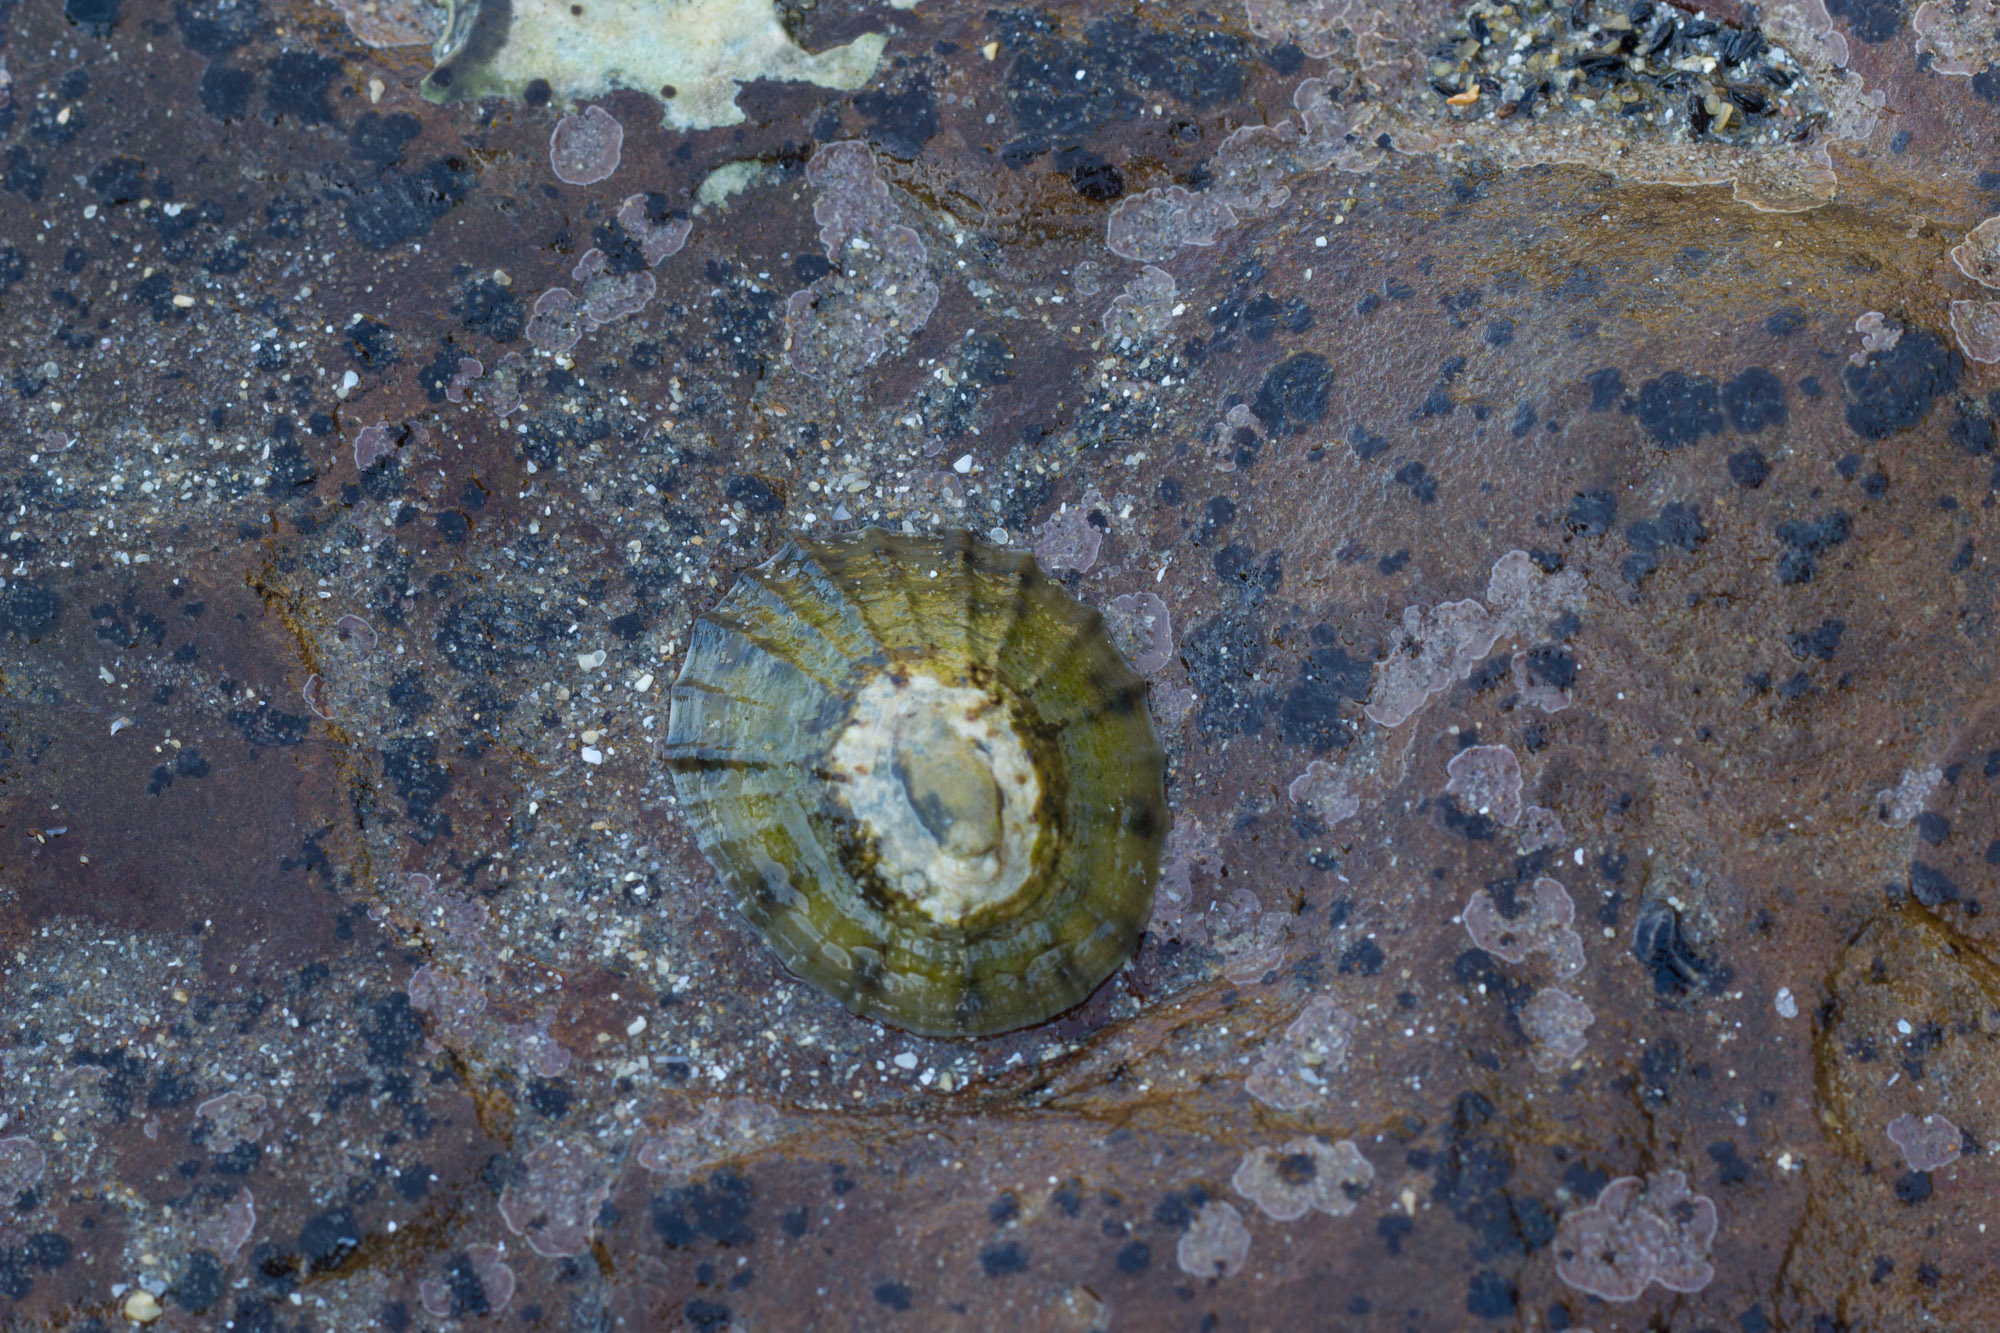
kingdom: Animalia
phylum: Mollusca
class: Gastropoda
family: Nacellidae
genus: Cellana
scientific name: Cellana radians
